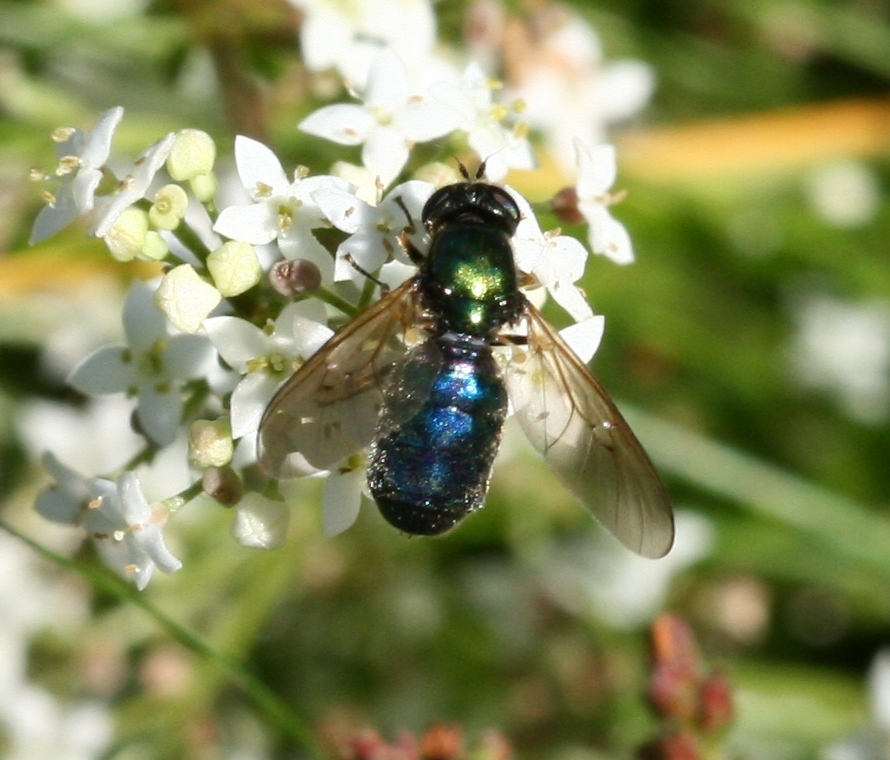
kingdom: Animalia
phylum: Arthropoda
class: Insecta
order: Diptera
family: Stratiomyidae
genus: Chloromyia
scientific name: Chloromyia formosa
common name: Soldier fly
